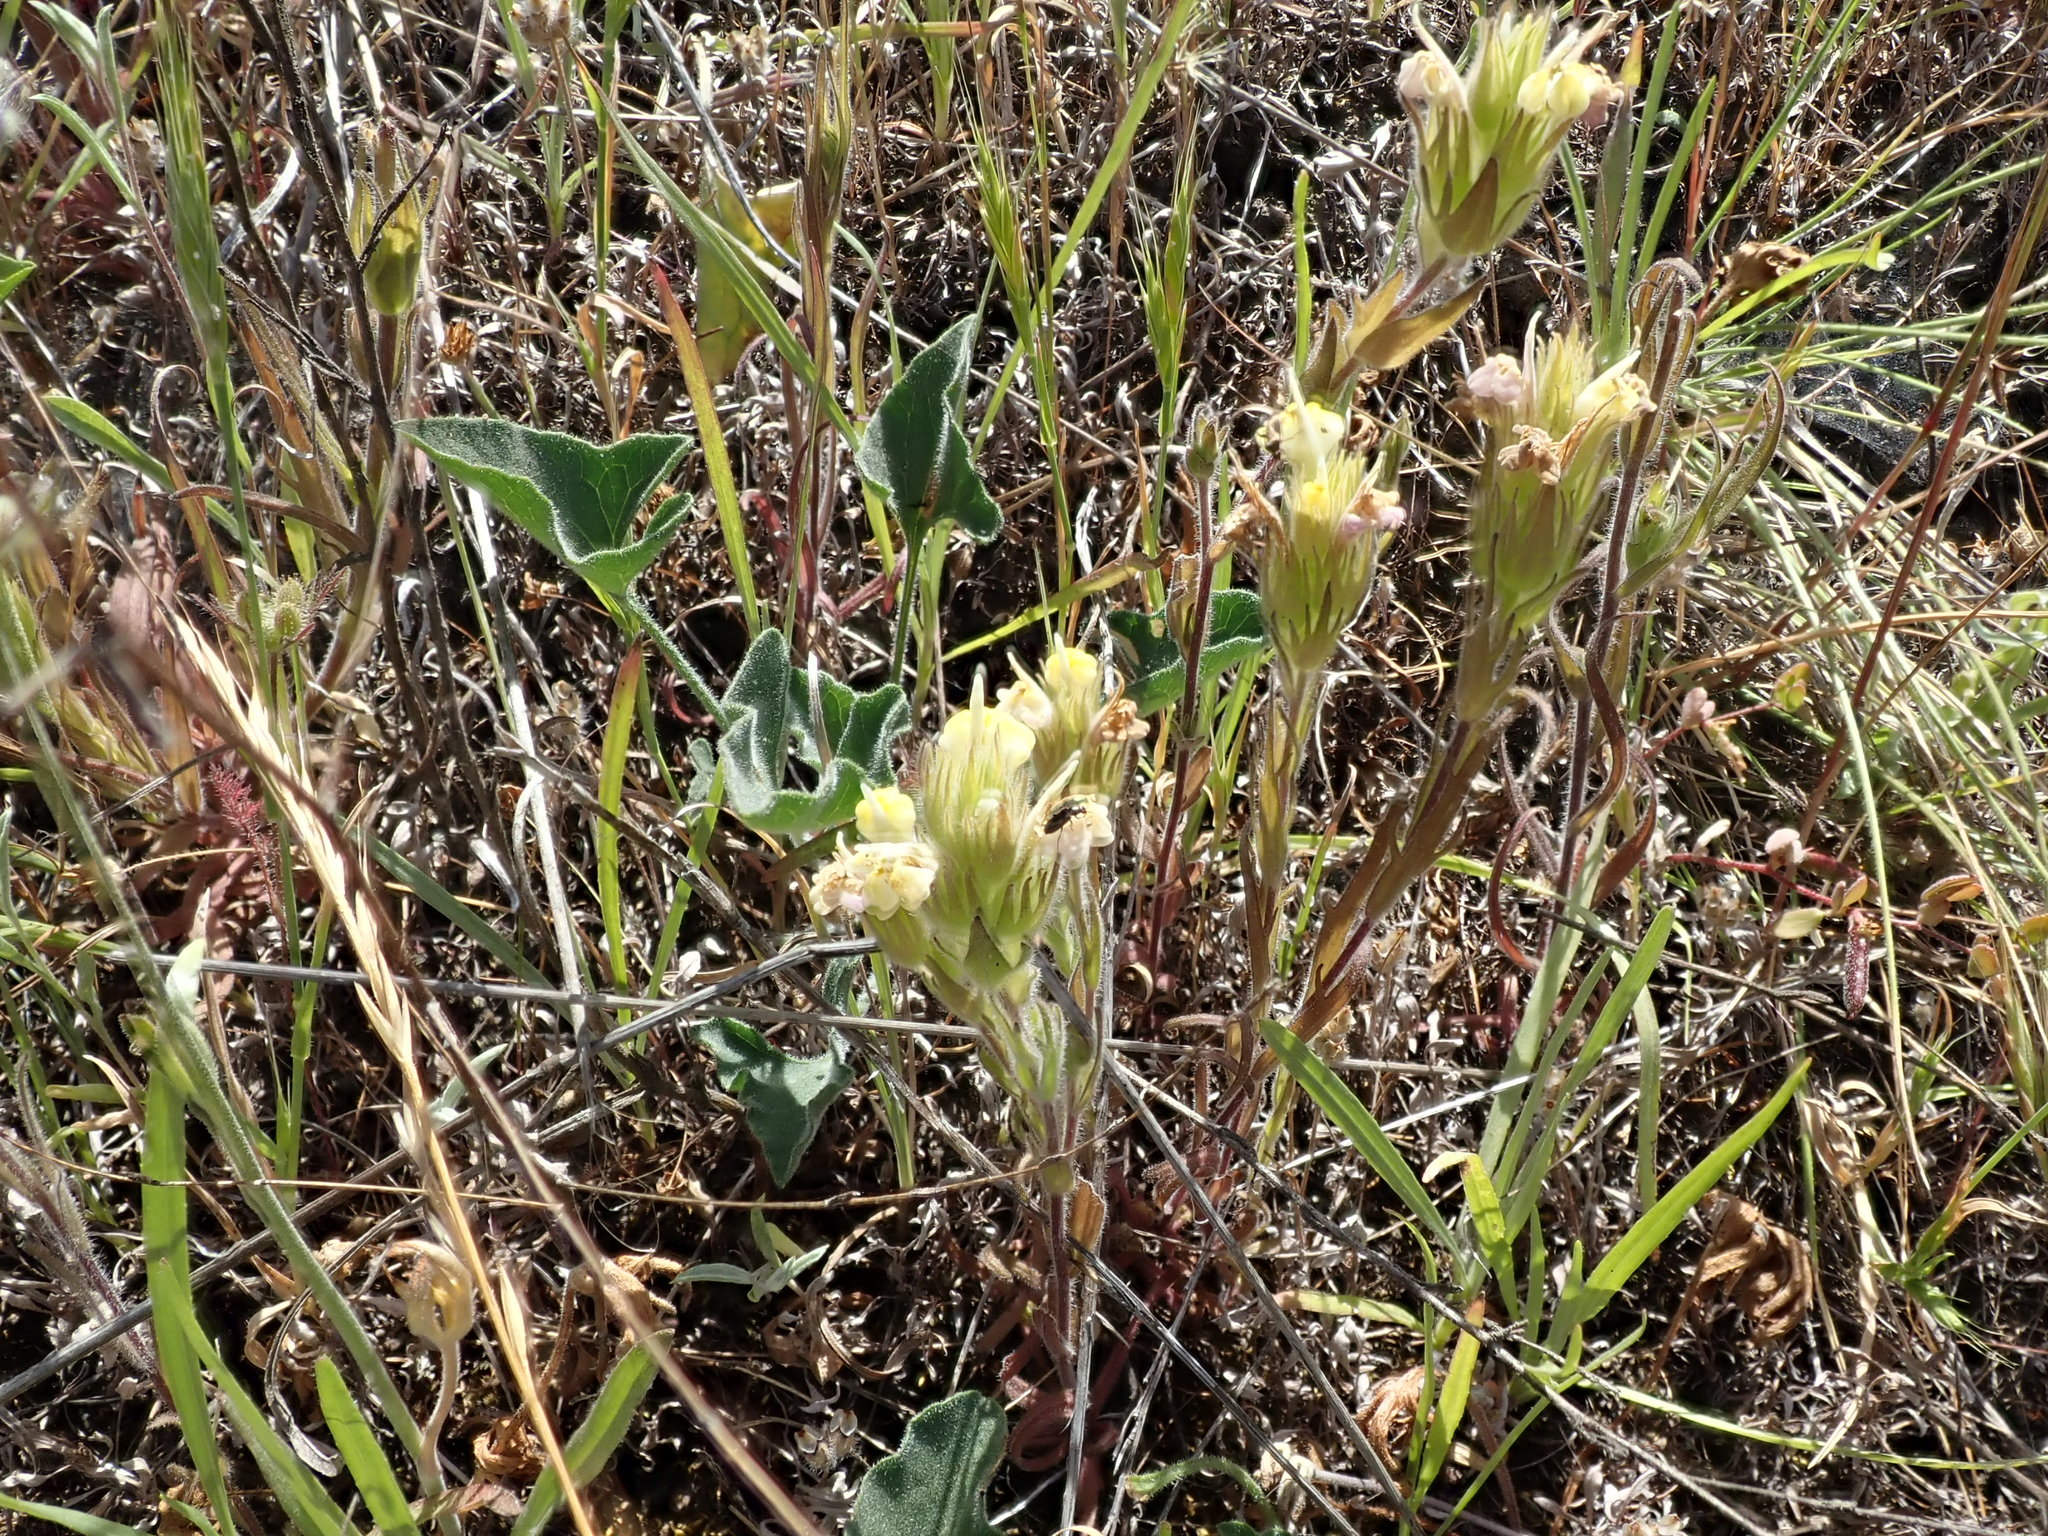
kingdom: Plantae
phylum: Tracheophyta
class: Magnoliopsida
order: Lamiales
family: Orobanchaceae
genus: Castilleja
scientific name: Castilleja rubicundula
